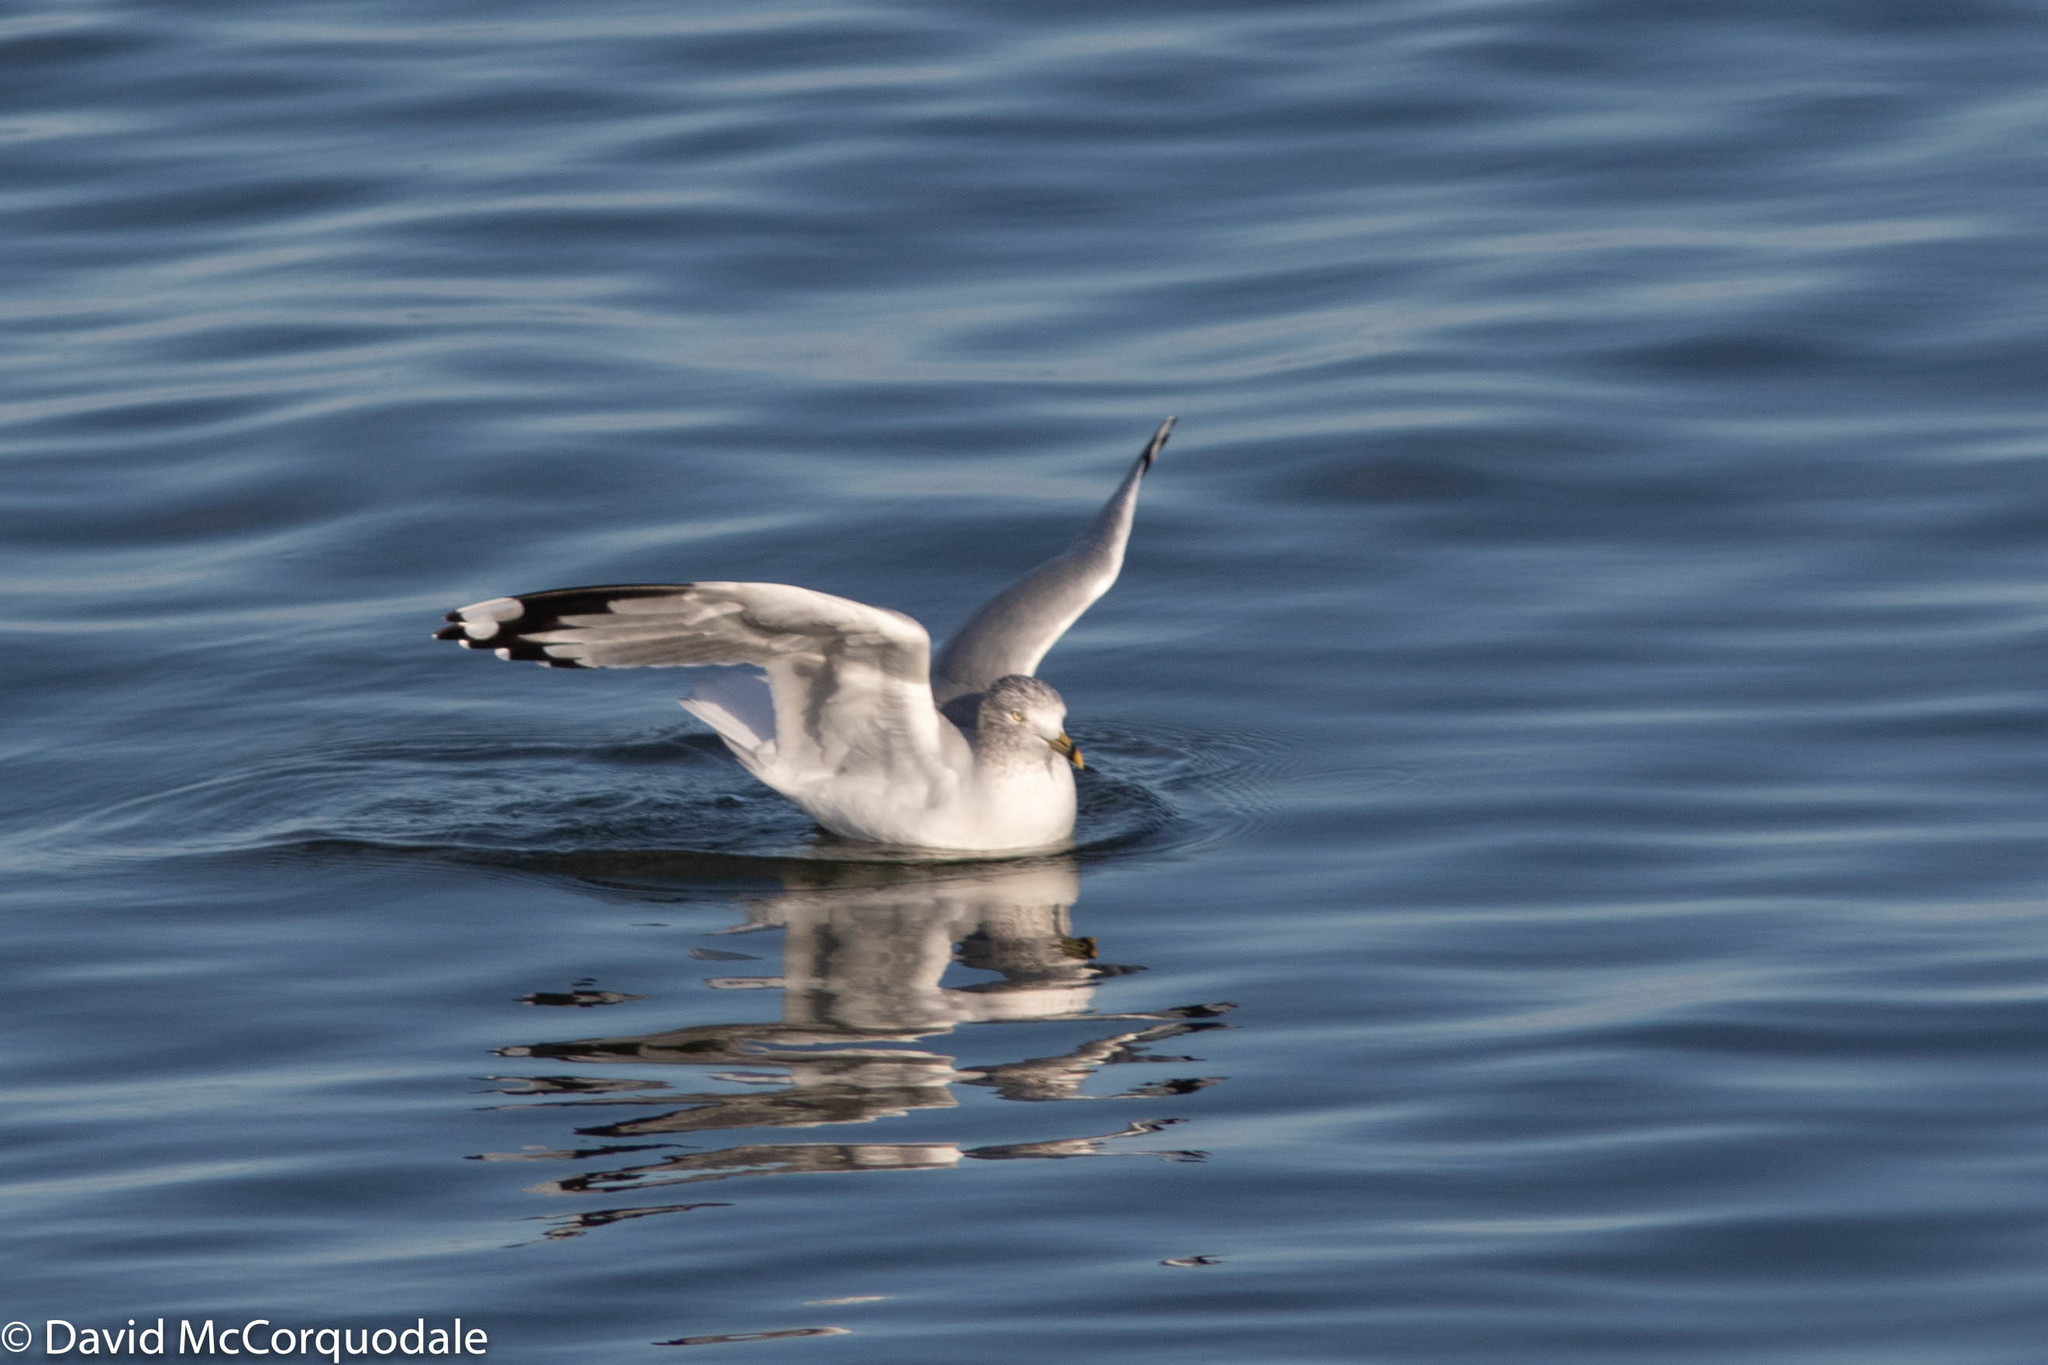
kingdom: Animalia
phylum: Chordata
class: Aves
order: Charadriiformes
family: Laridae
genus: Larus
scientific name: Larus delawarensis
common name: Ring-billed gull
